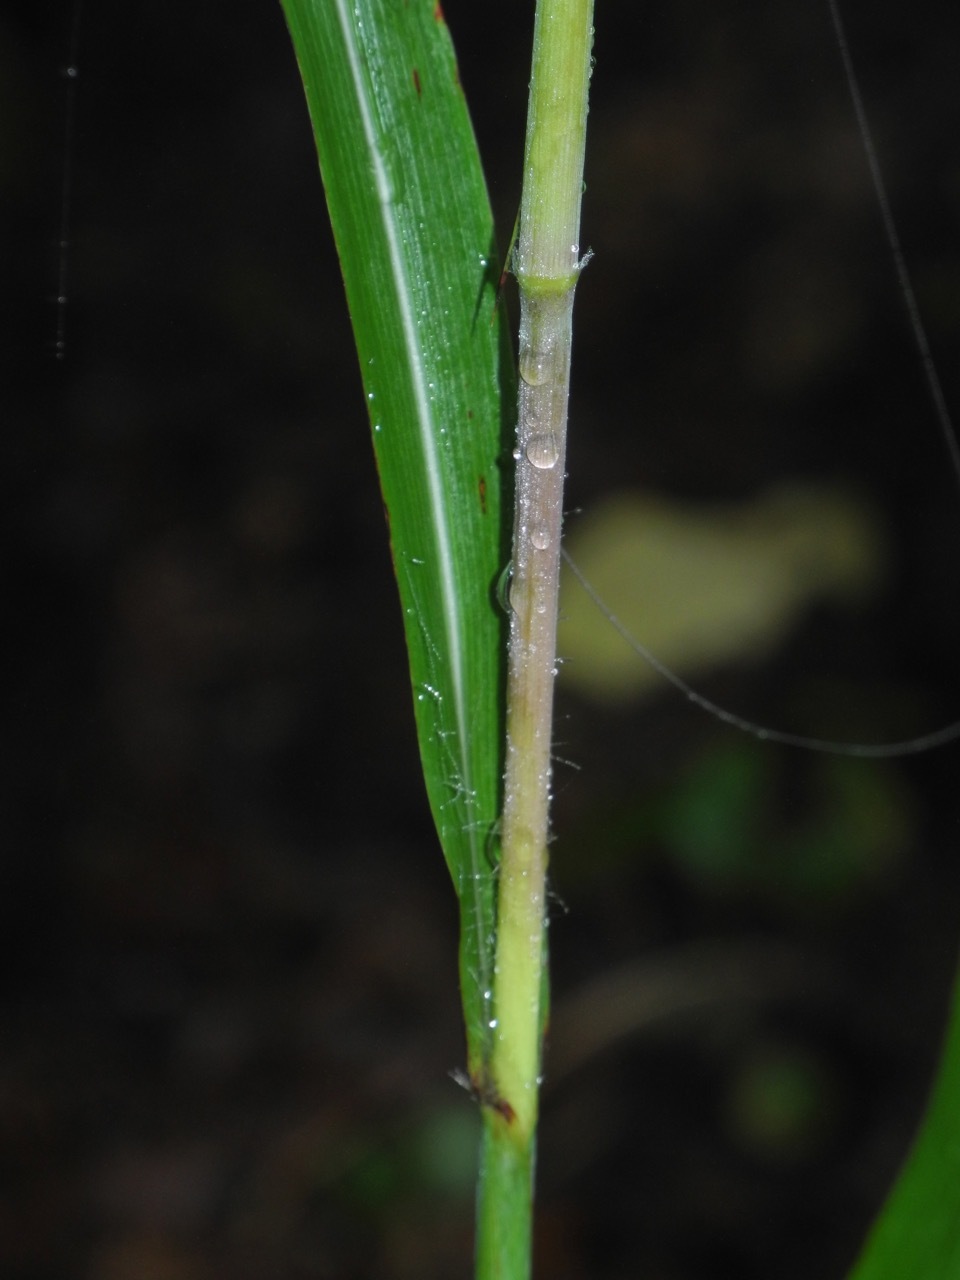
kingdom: Plantae
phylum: Tracheophyta
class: Liliopsida
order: Poales
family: Poaceae
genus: Erianthus
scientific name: Erianthus giganteus
